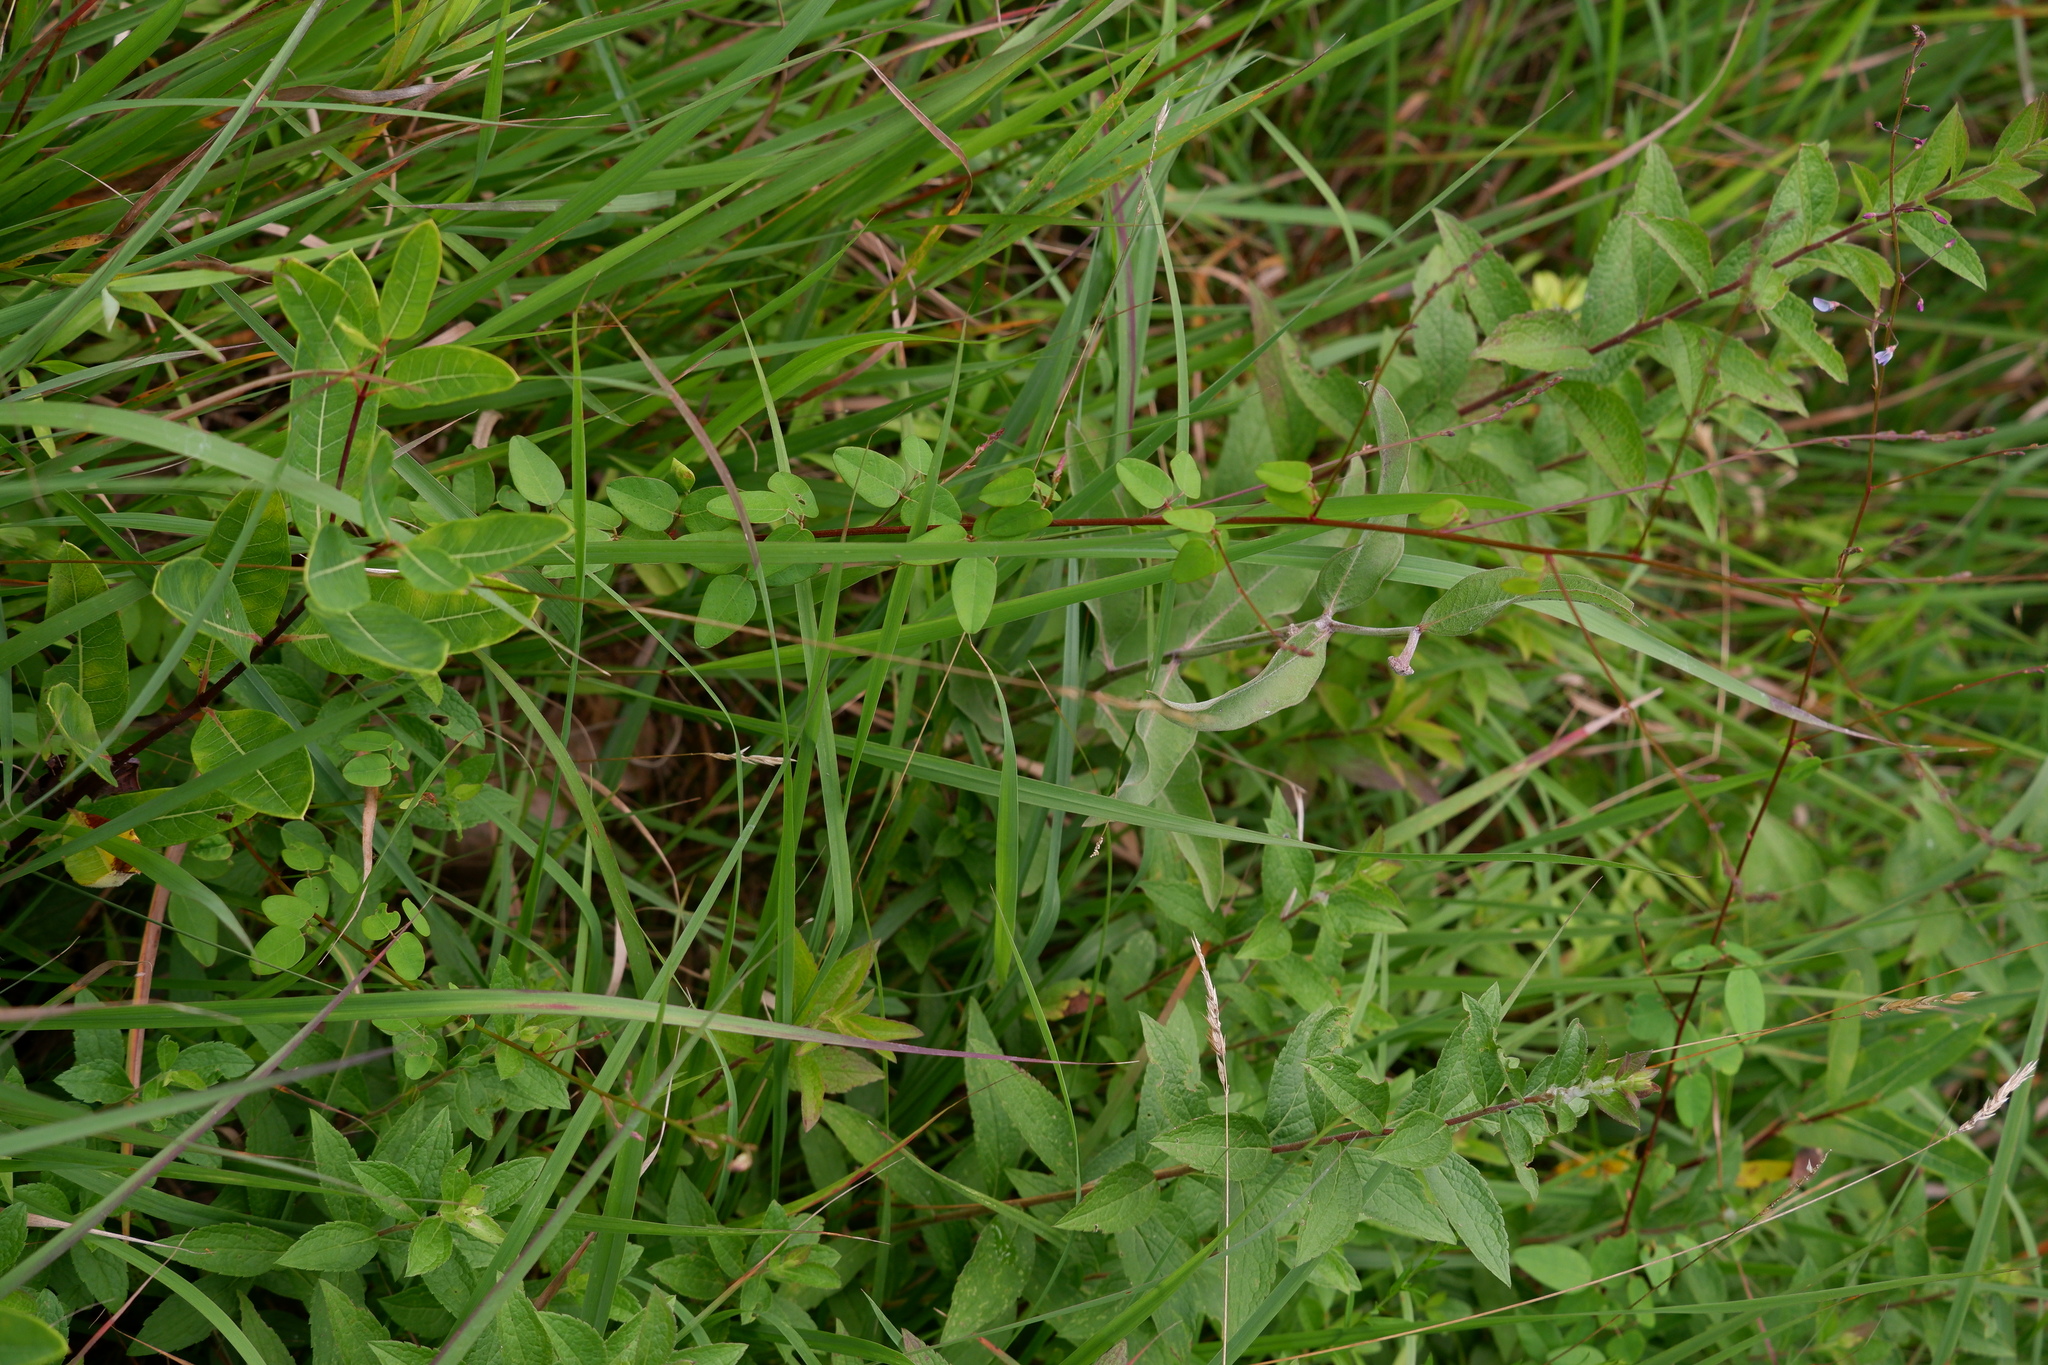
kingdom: Plantae
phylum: Tracheophyta
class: Magnoliopsida
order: Fabales
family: Fabaceae
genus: Desmodium
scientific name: Desmodium marilandicum
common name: Maryland tick-trefoil
